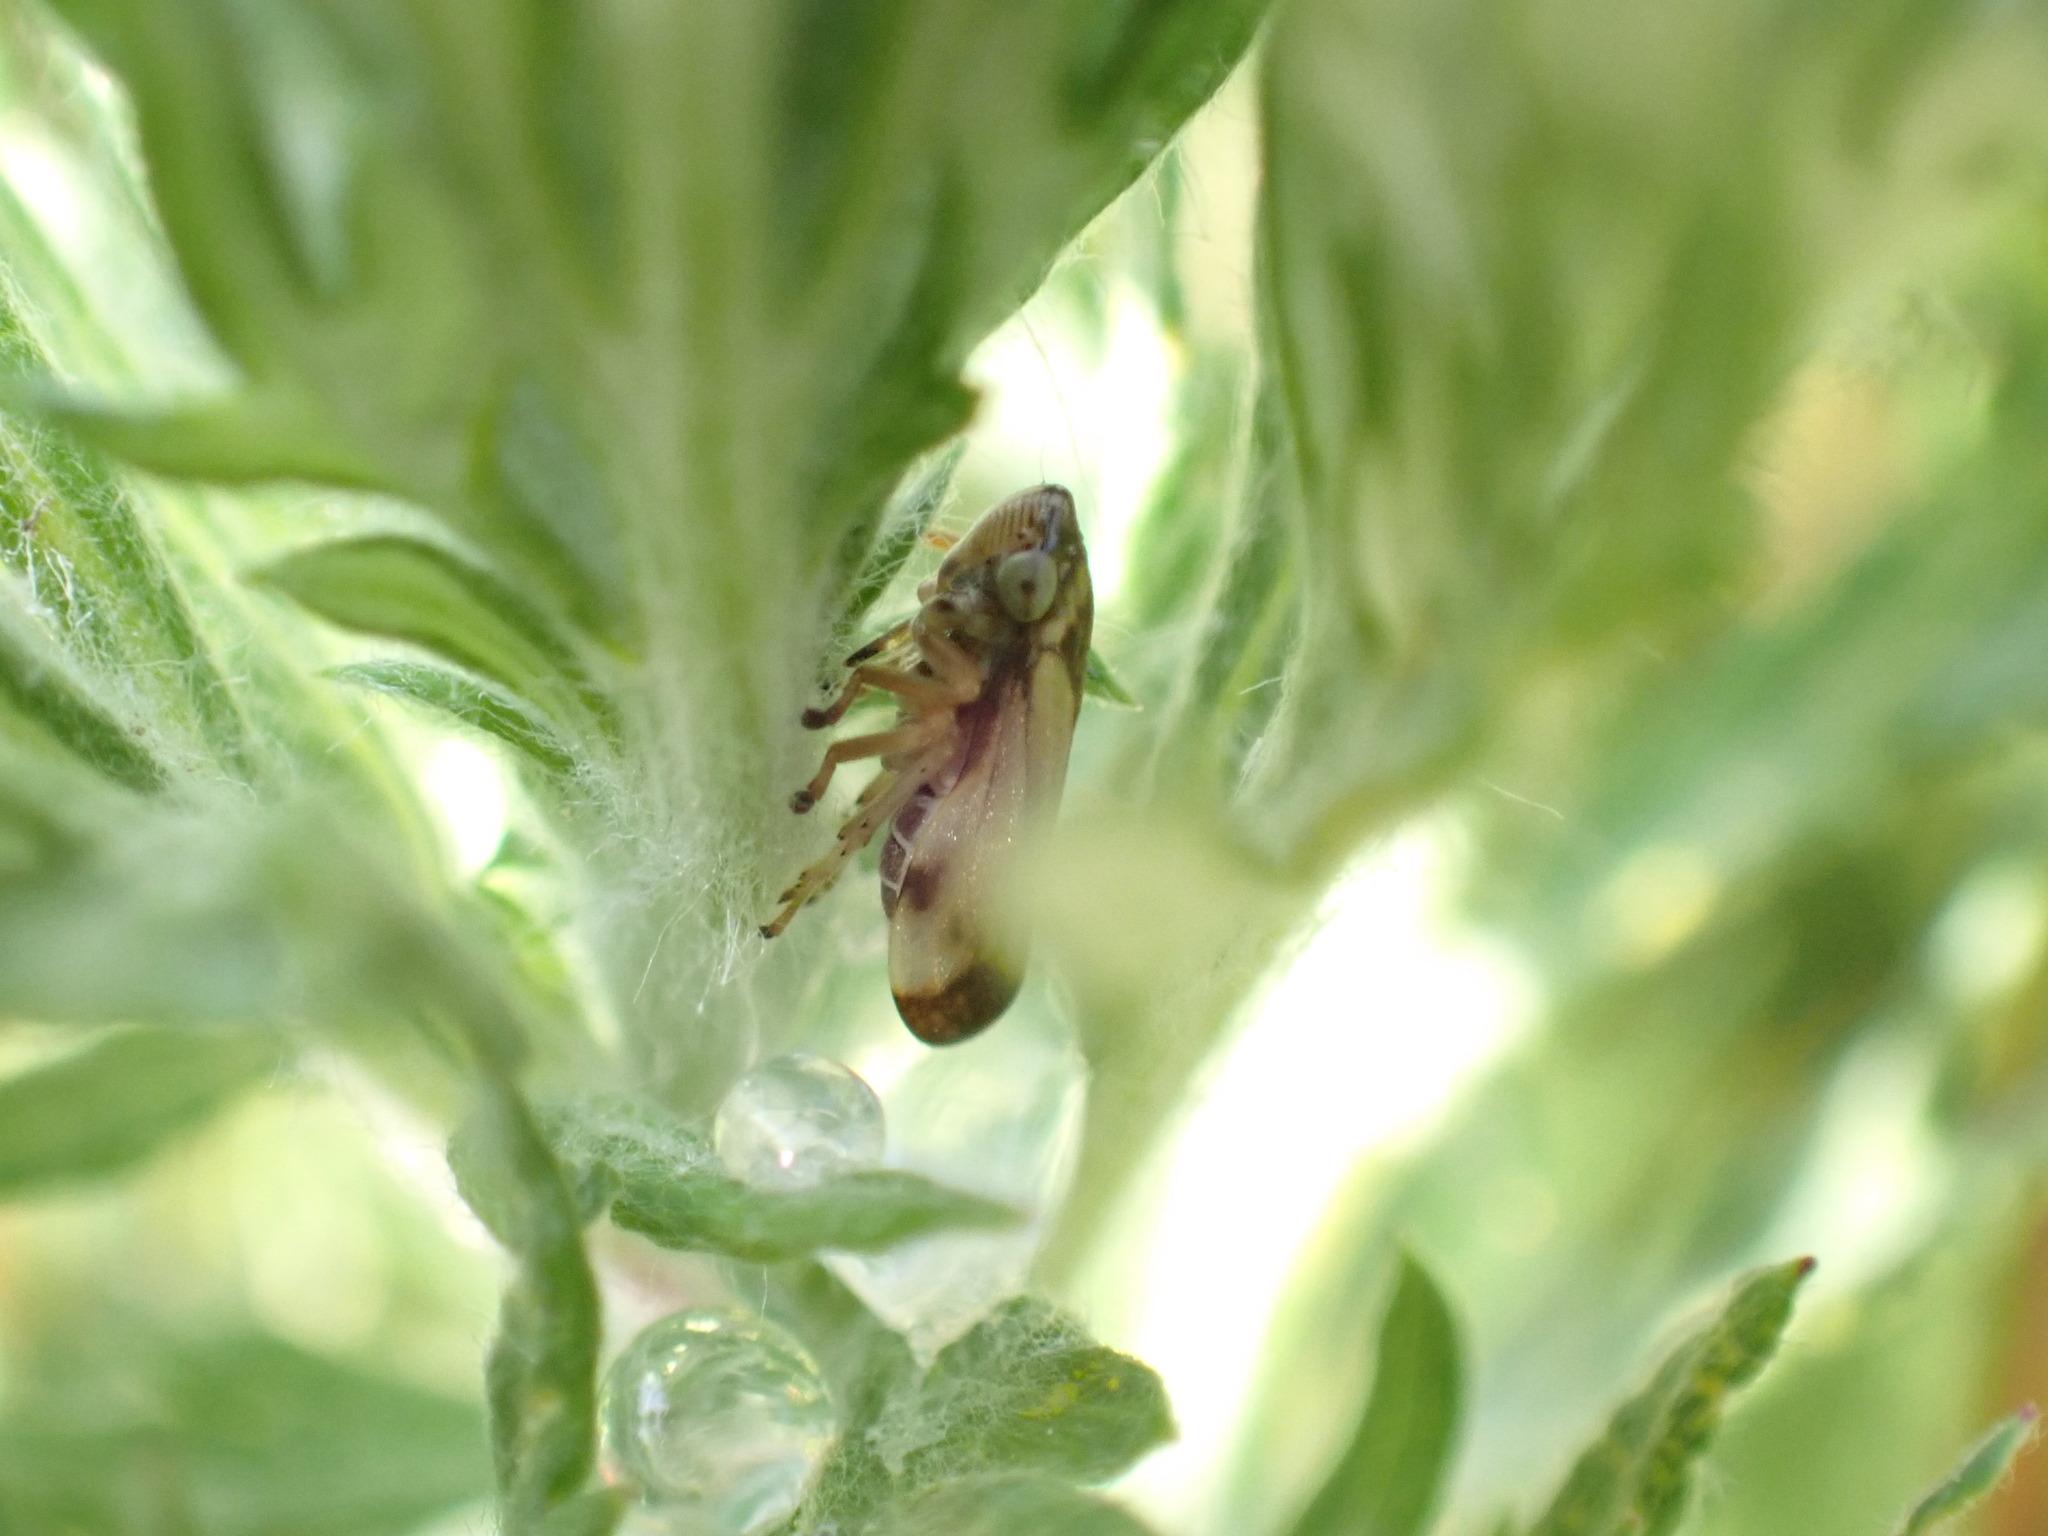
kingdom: Animalia
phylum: Arthropoda
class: Insecta
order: Hemiptera
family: Aphrophoridae
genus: Philaenus
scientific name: Philaenus spumarius
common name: Meadow spittlebug
